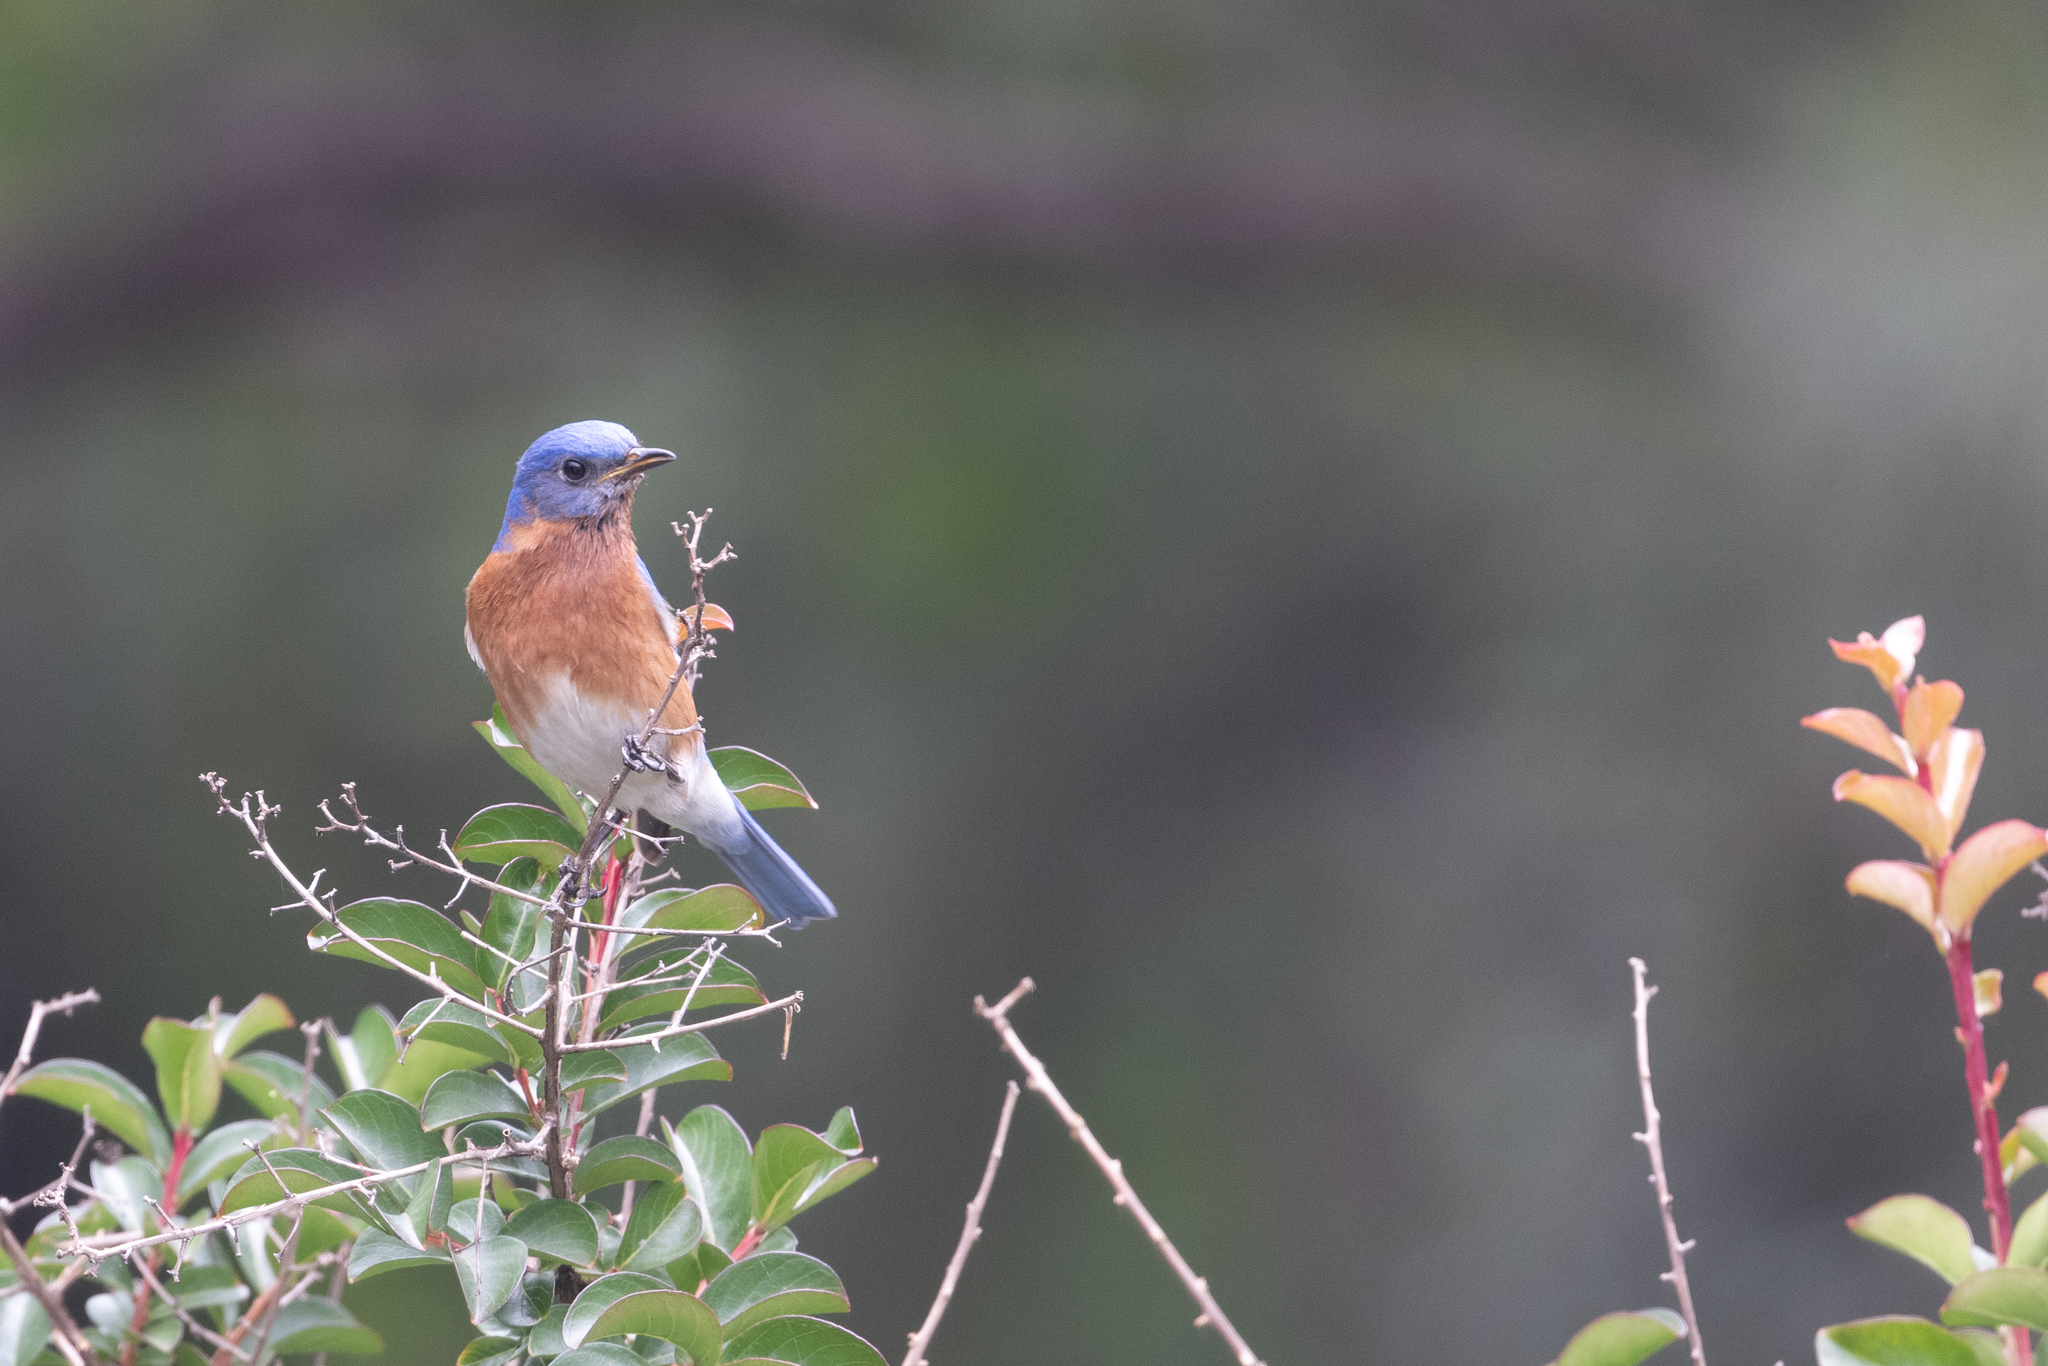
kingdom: Animalia
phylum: Chordata
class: Aves
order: Passeriformes
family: Turdidae
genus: Sialia
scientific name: Sialia sialis
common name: Eastern bluebird
